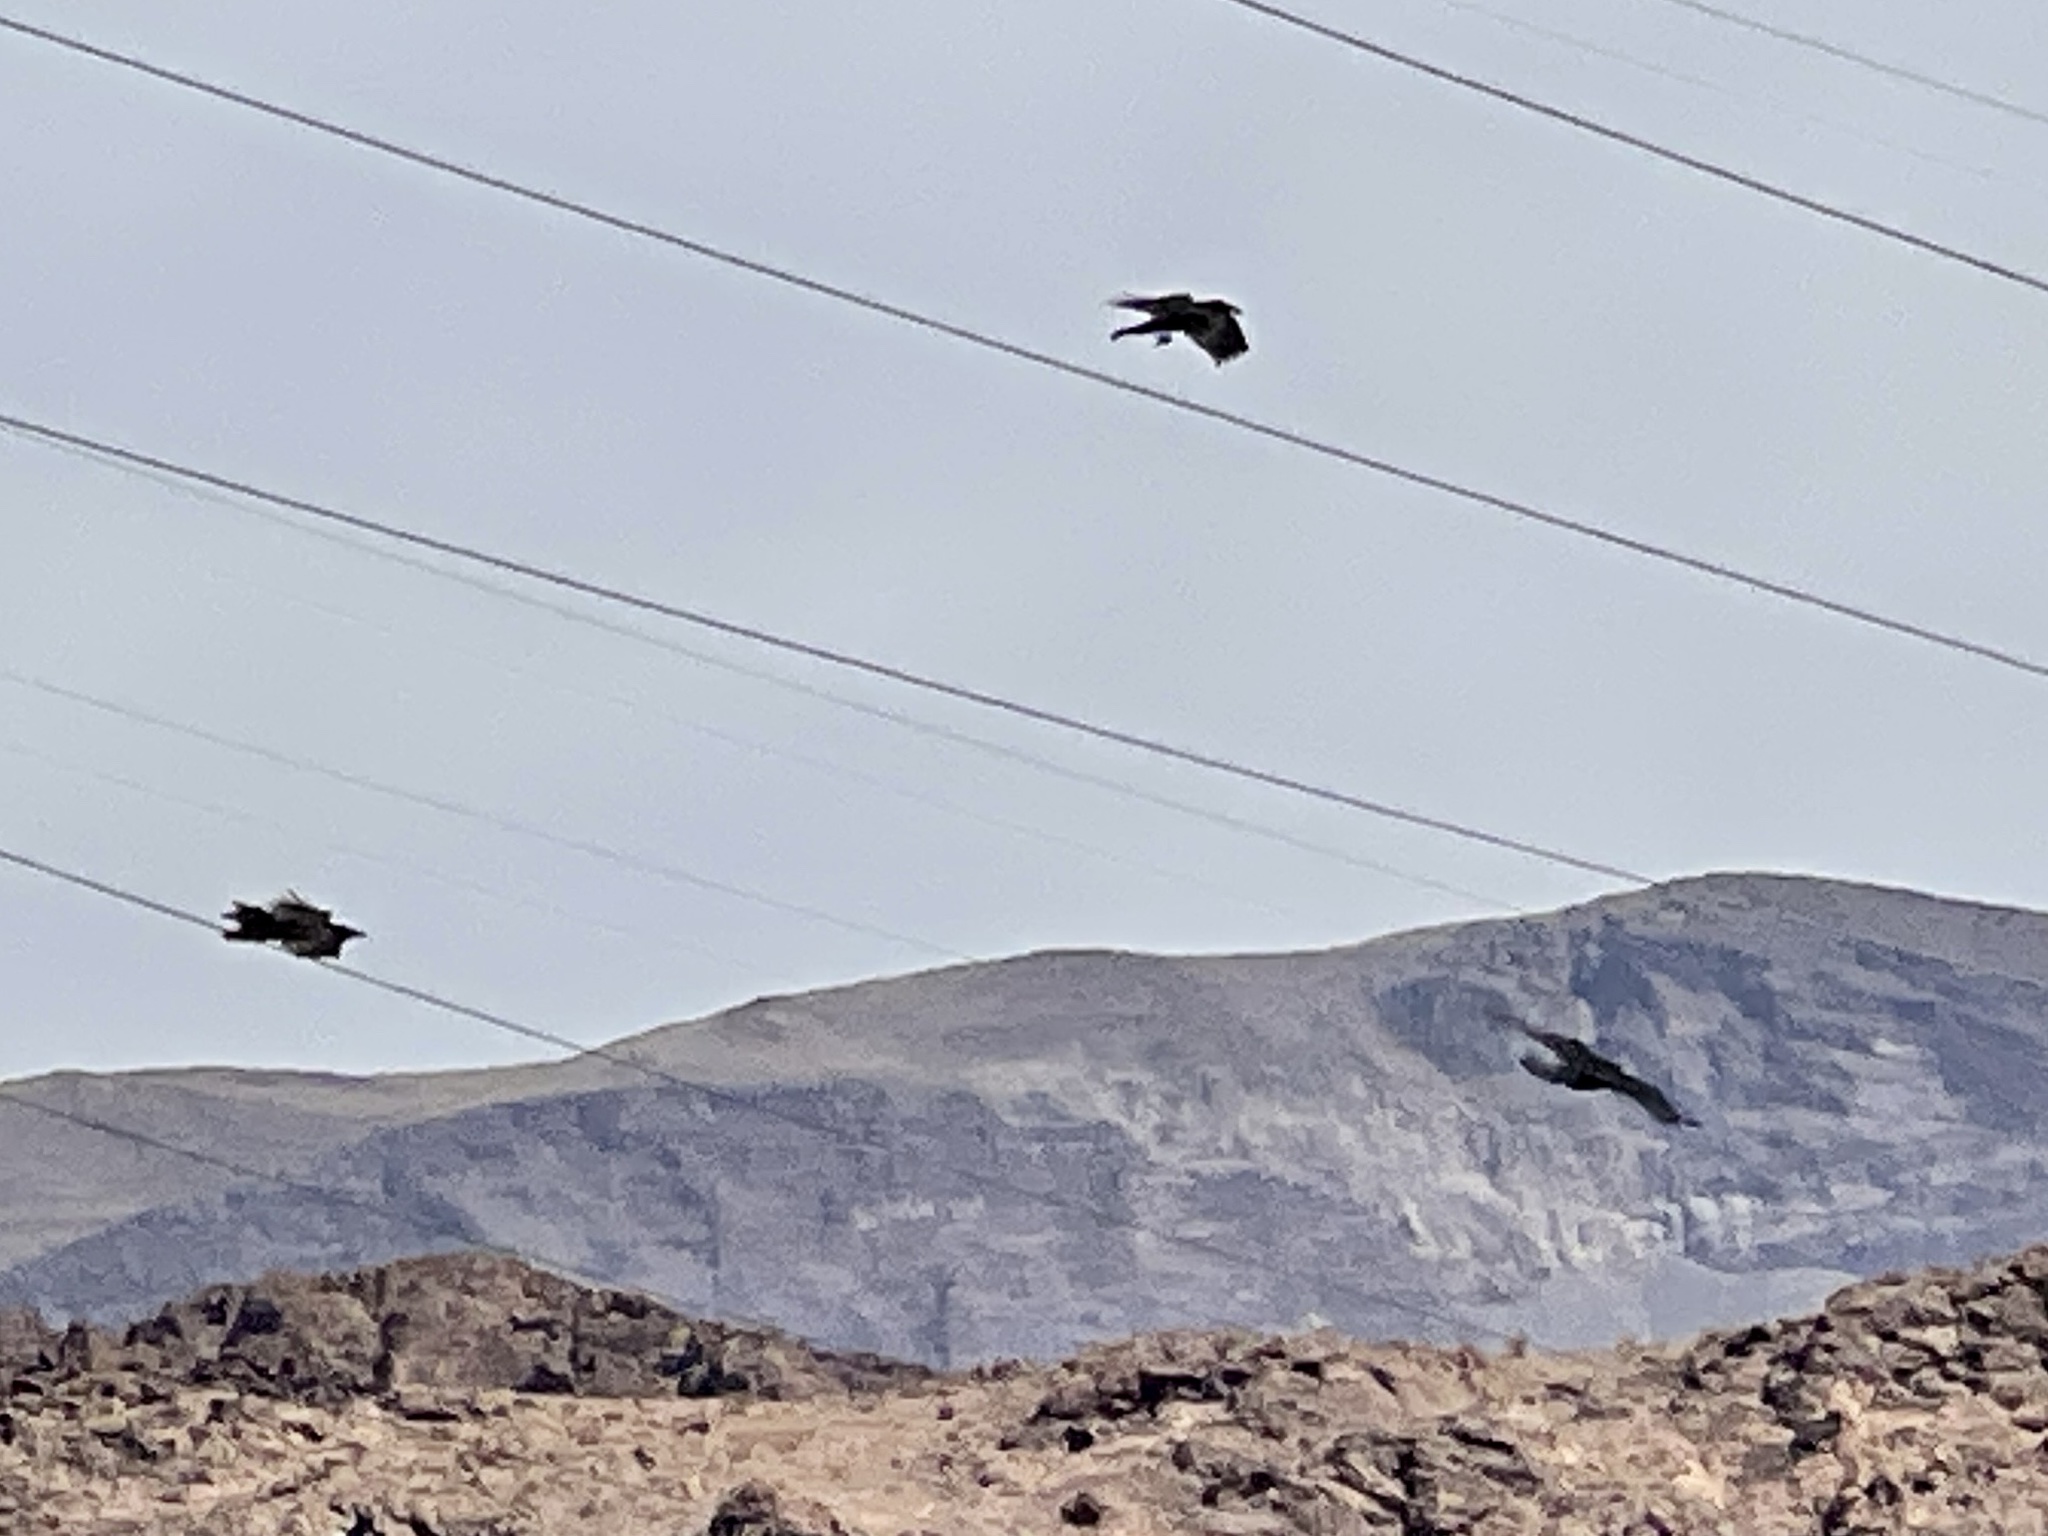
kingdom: Animalia
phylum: Chordata
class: Aves
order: Passeriformes
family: Corvidae
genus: Corvus
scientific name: Corvus corax
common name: Common raven
